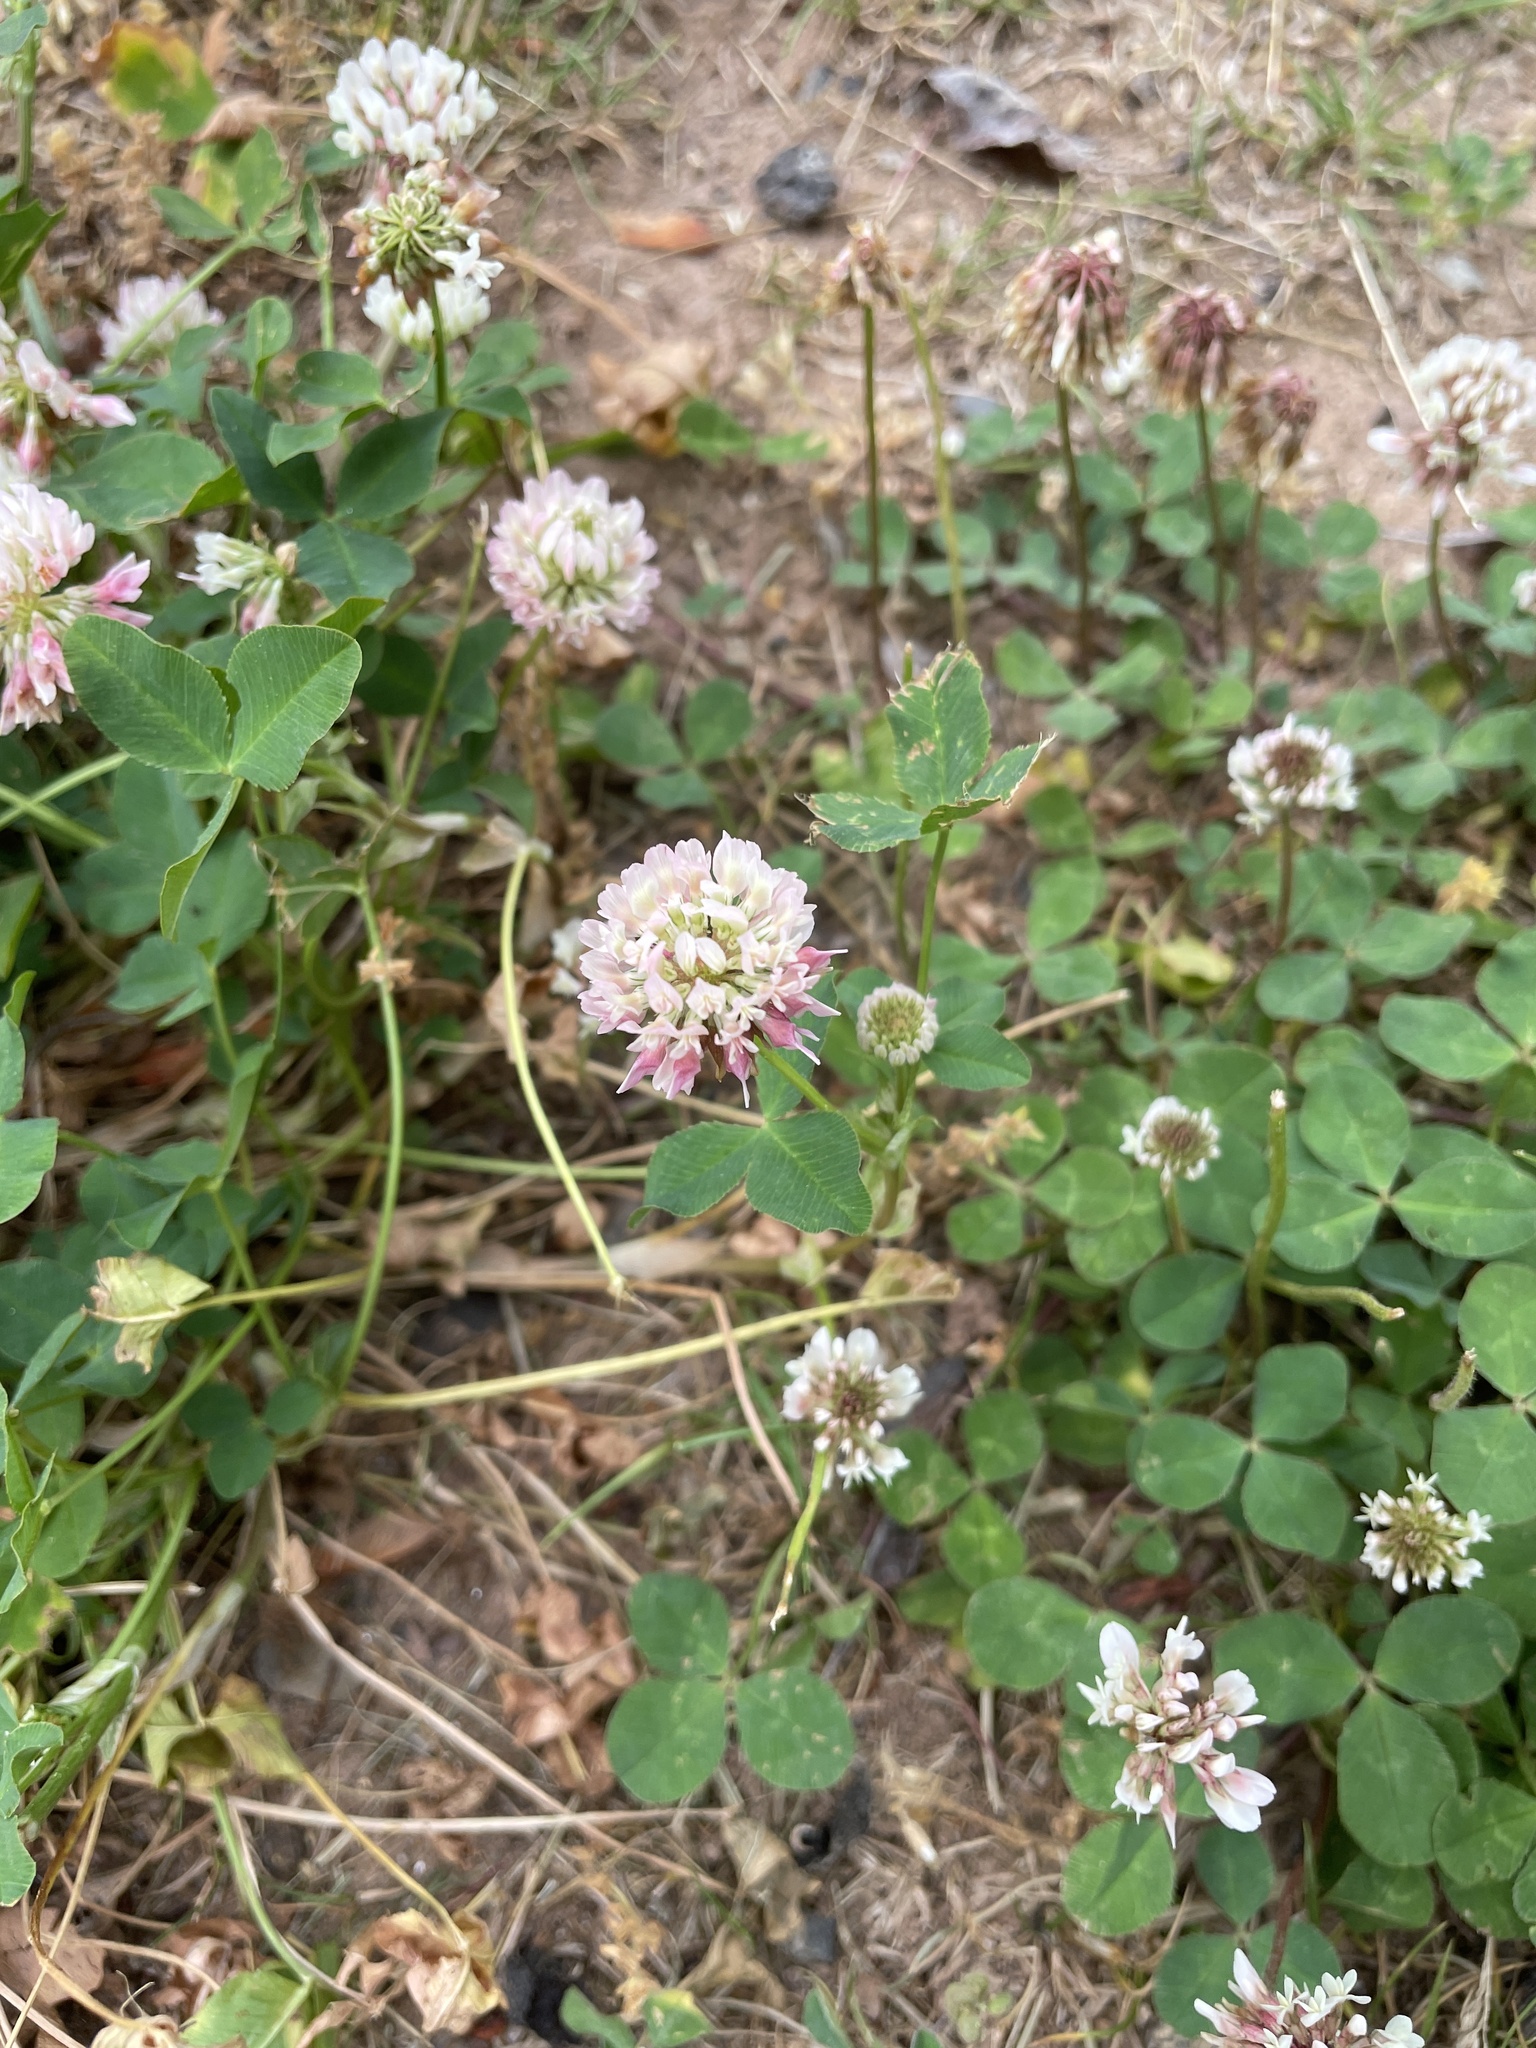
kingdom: Plantae
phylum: Tracheophyta
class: Magnoliopsida
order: Fabales
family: Fabaceae
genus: Trifolium
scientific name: Trifolium hybridum
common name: Alsike clover
